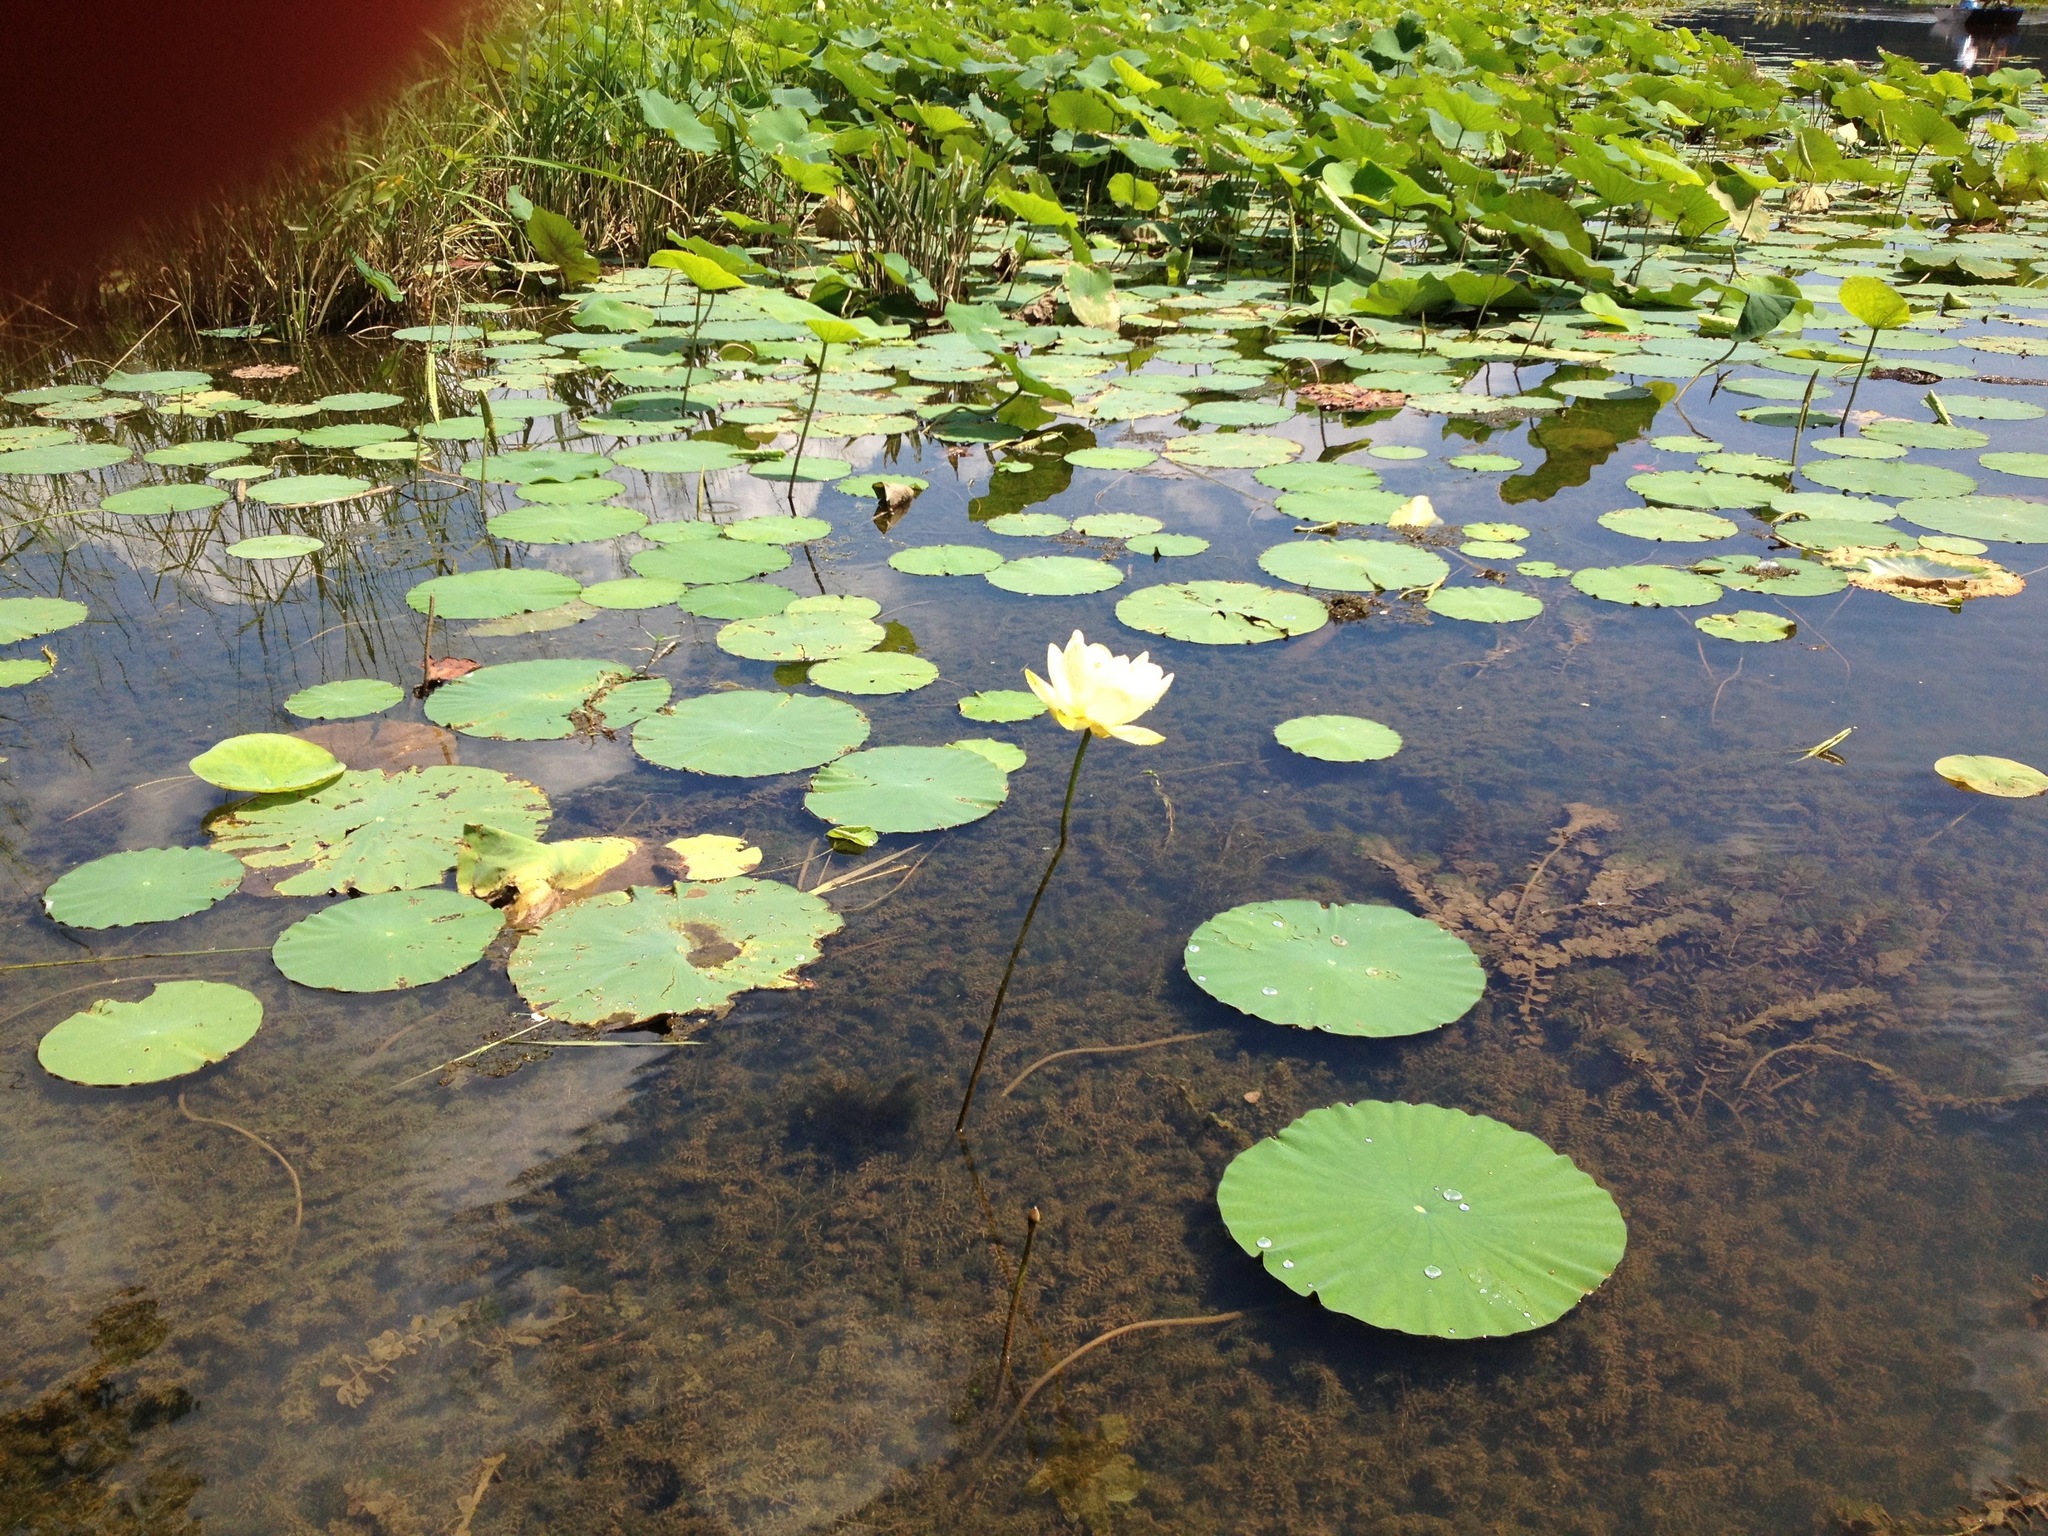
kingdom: Plantae
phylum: Tracheophyta
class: Magnoliopsida
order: Proteales
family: Nelumbonaceae
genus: Nelumbo
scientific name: Nelumbo lutea
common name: American lotus
